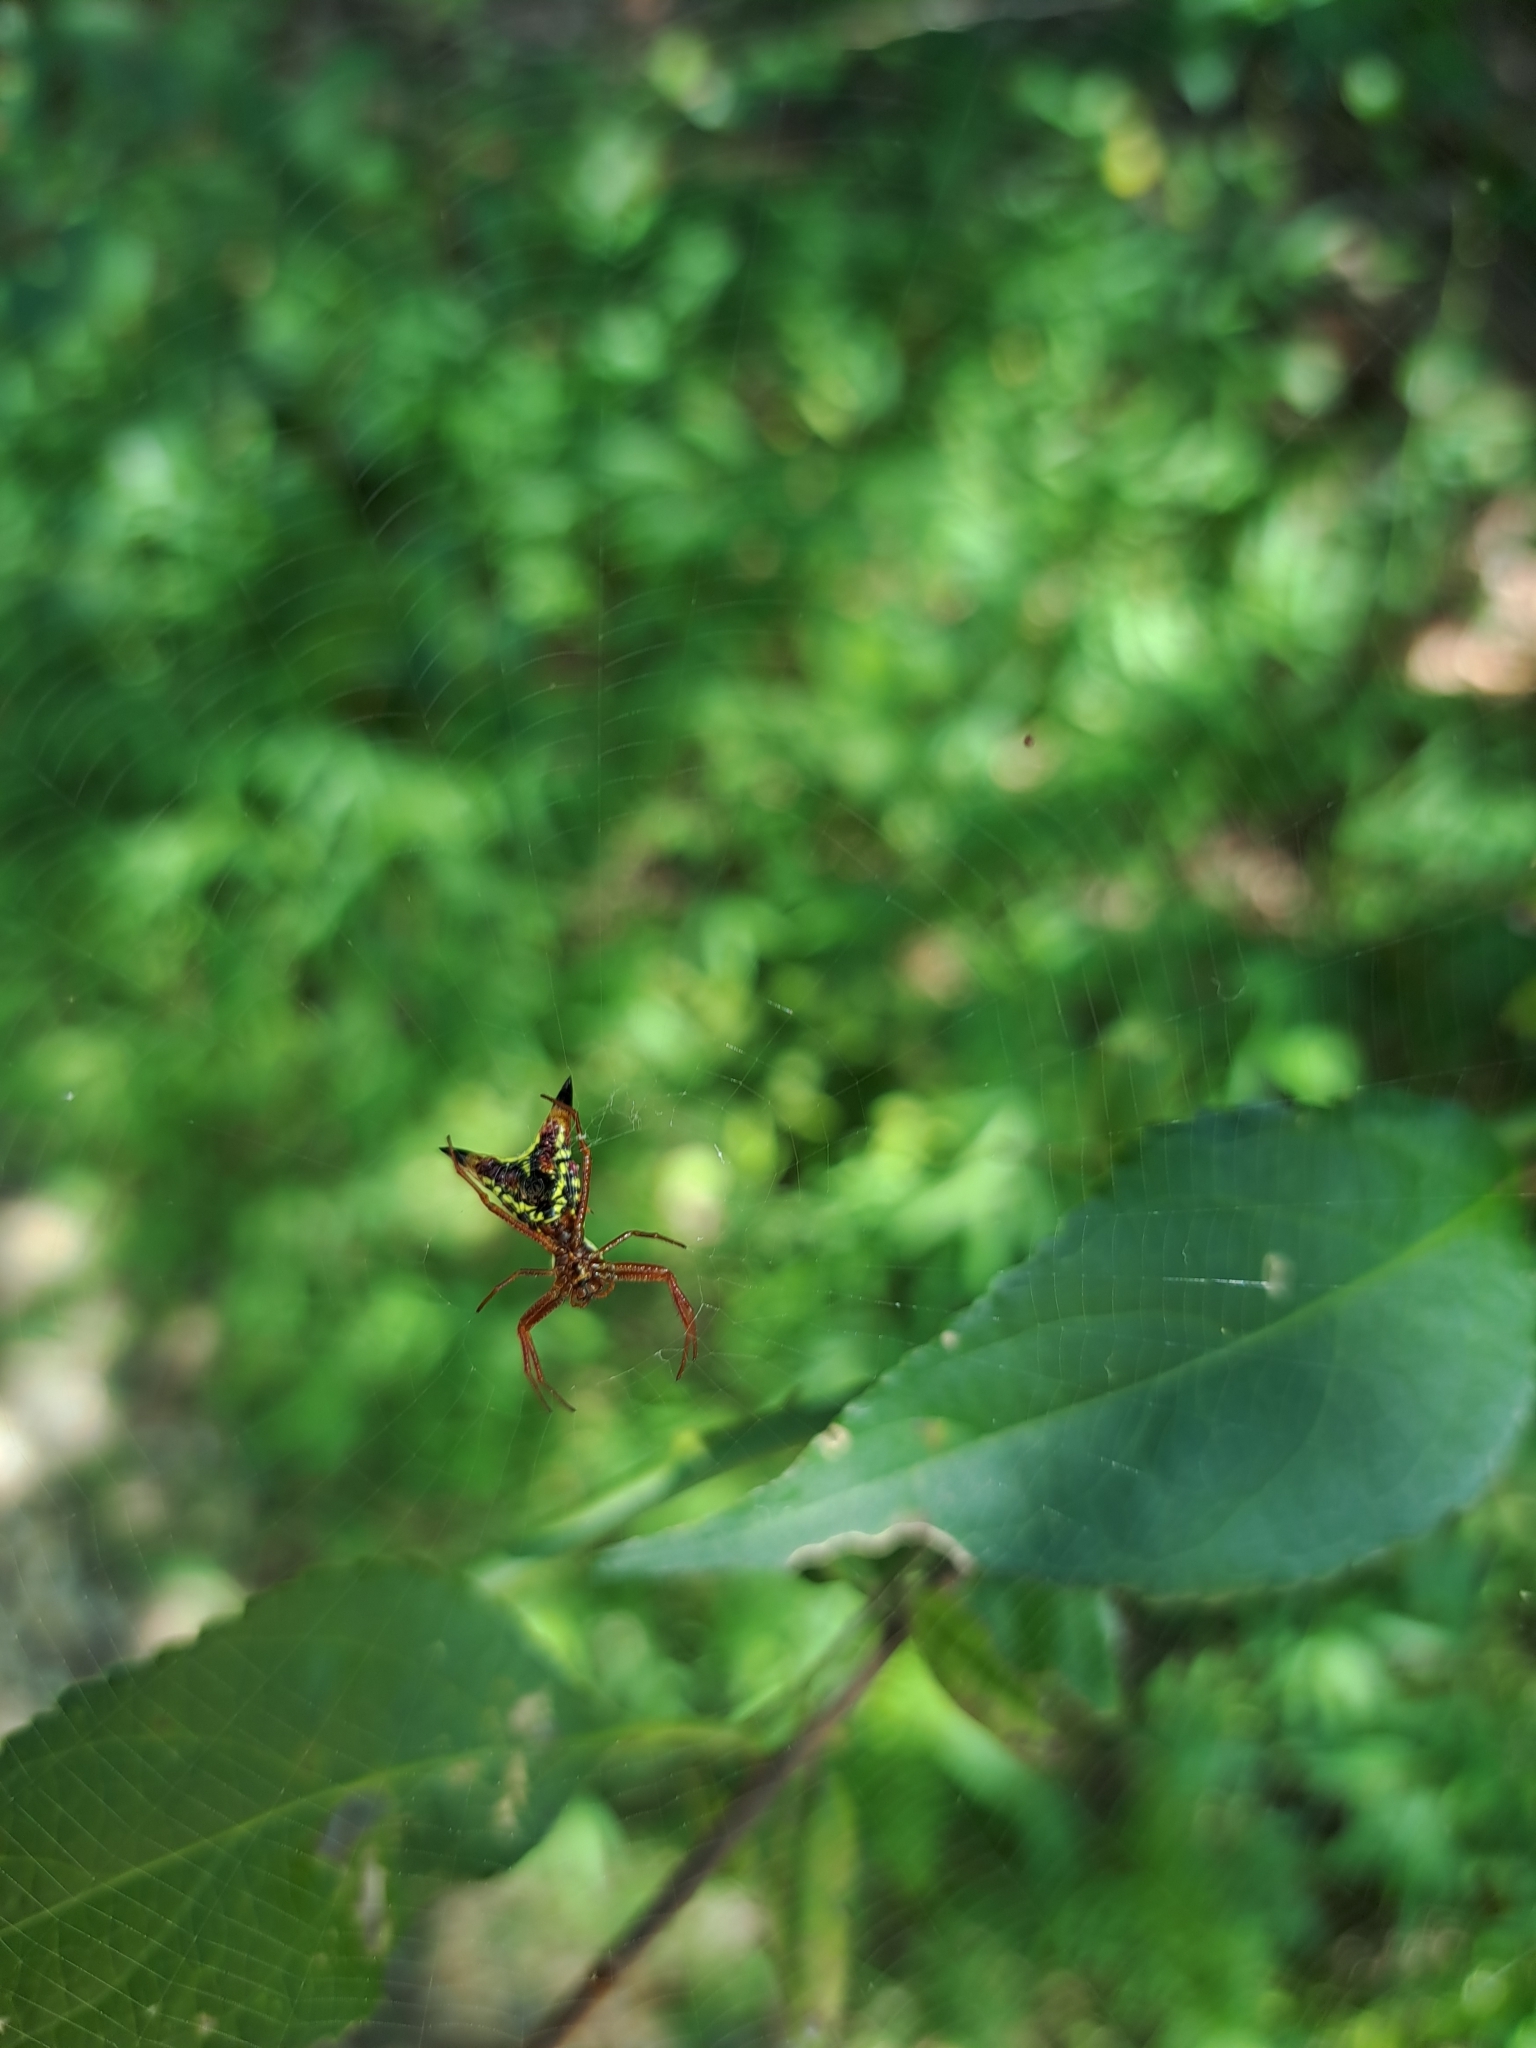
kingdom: Animalia
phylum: Arthropoda
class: Arachnida
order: Araneae
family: Araneidae
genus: Micrathena
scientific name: Micrathena sagittata
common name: Orb weavers
